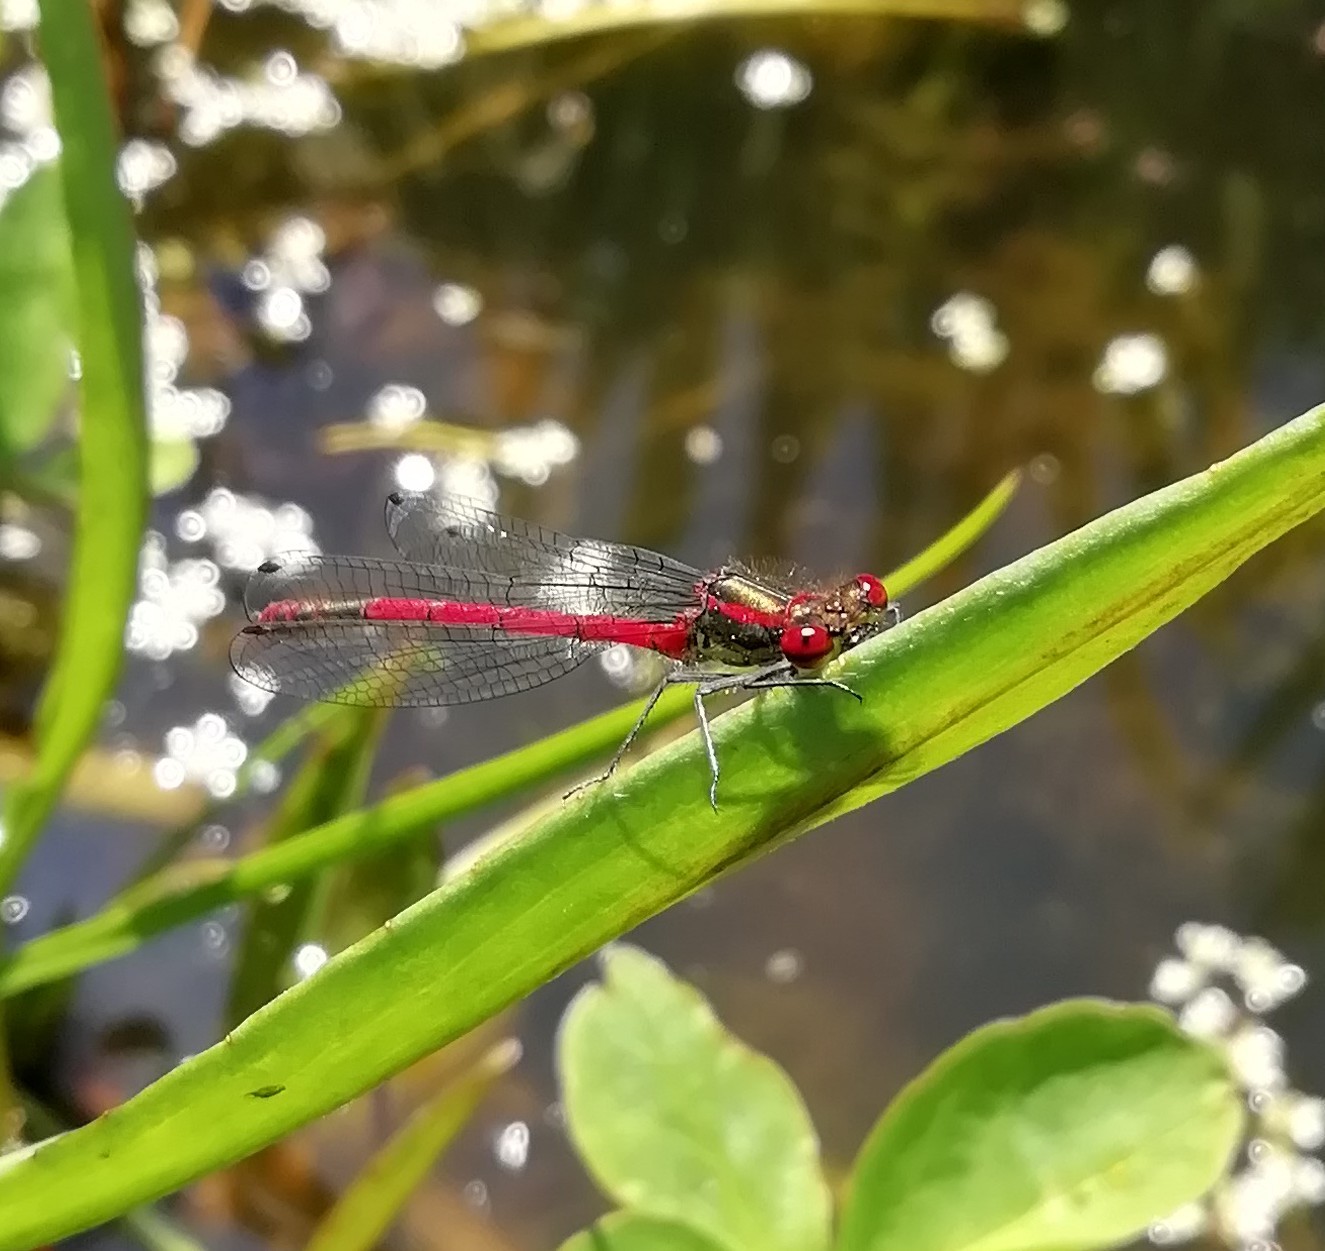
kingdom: Animalia
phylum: Arthropoda
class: Insecta
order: Odonata
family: Coenagrionidae
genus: Pyrrhosoma
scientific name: Pyrrhosoma nymphula
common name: Large red damsel
